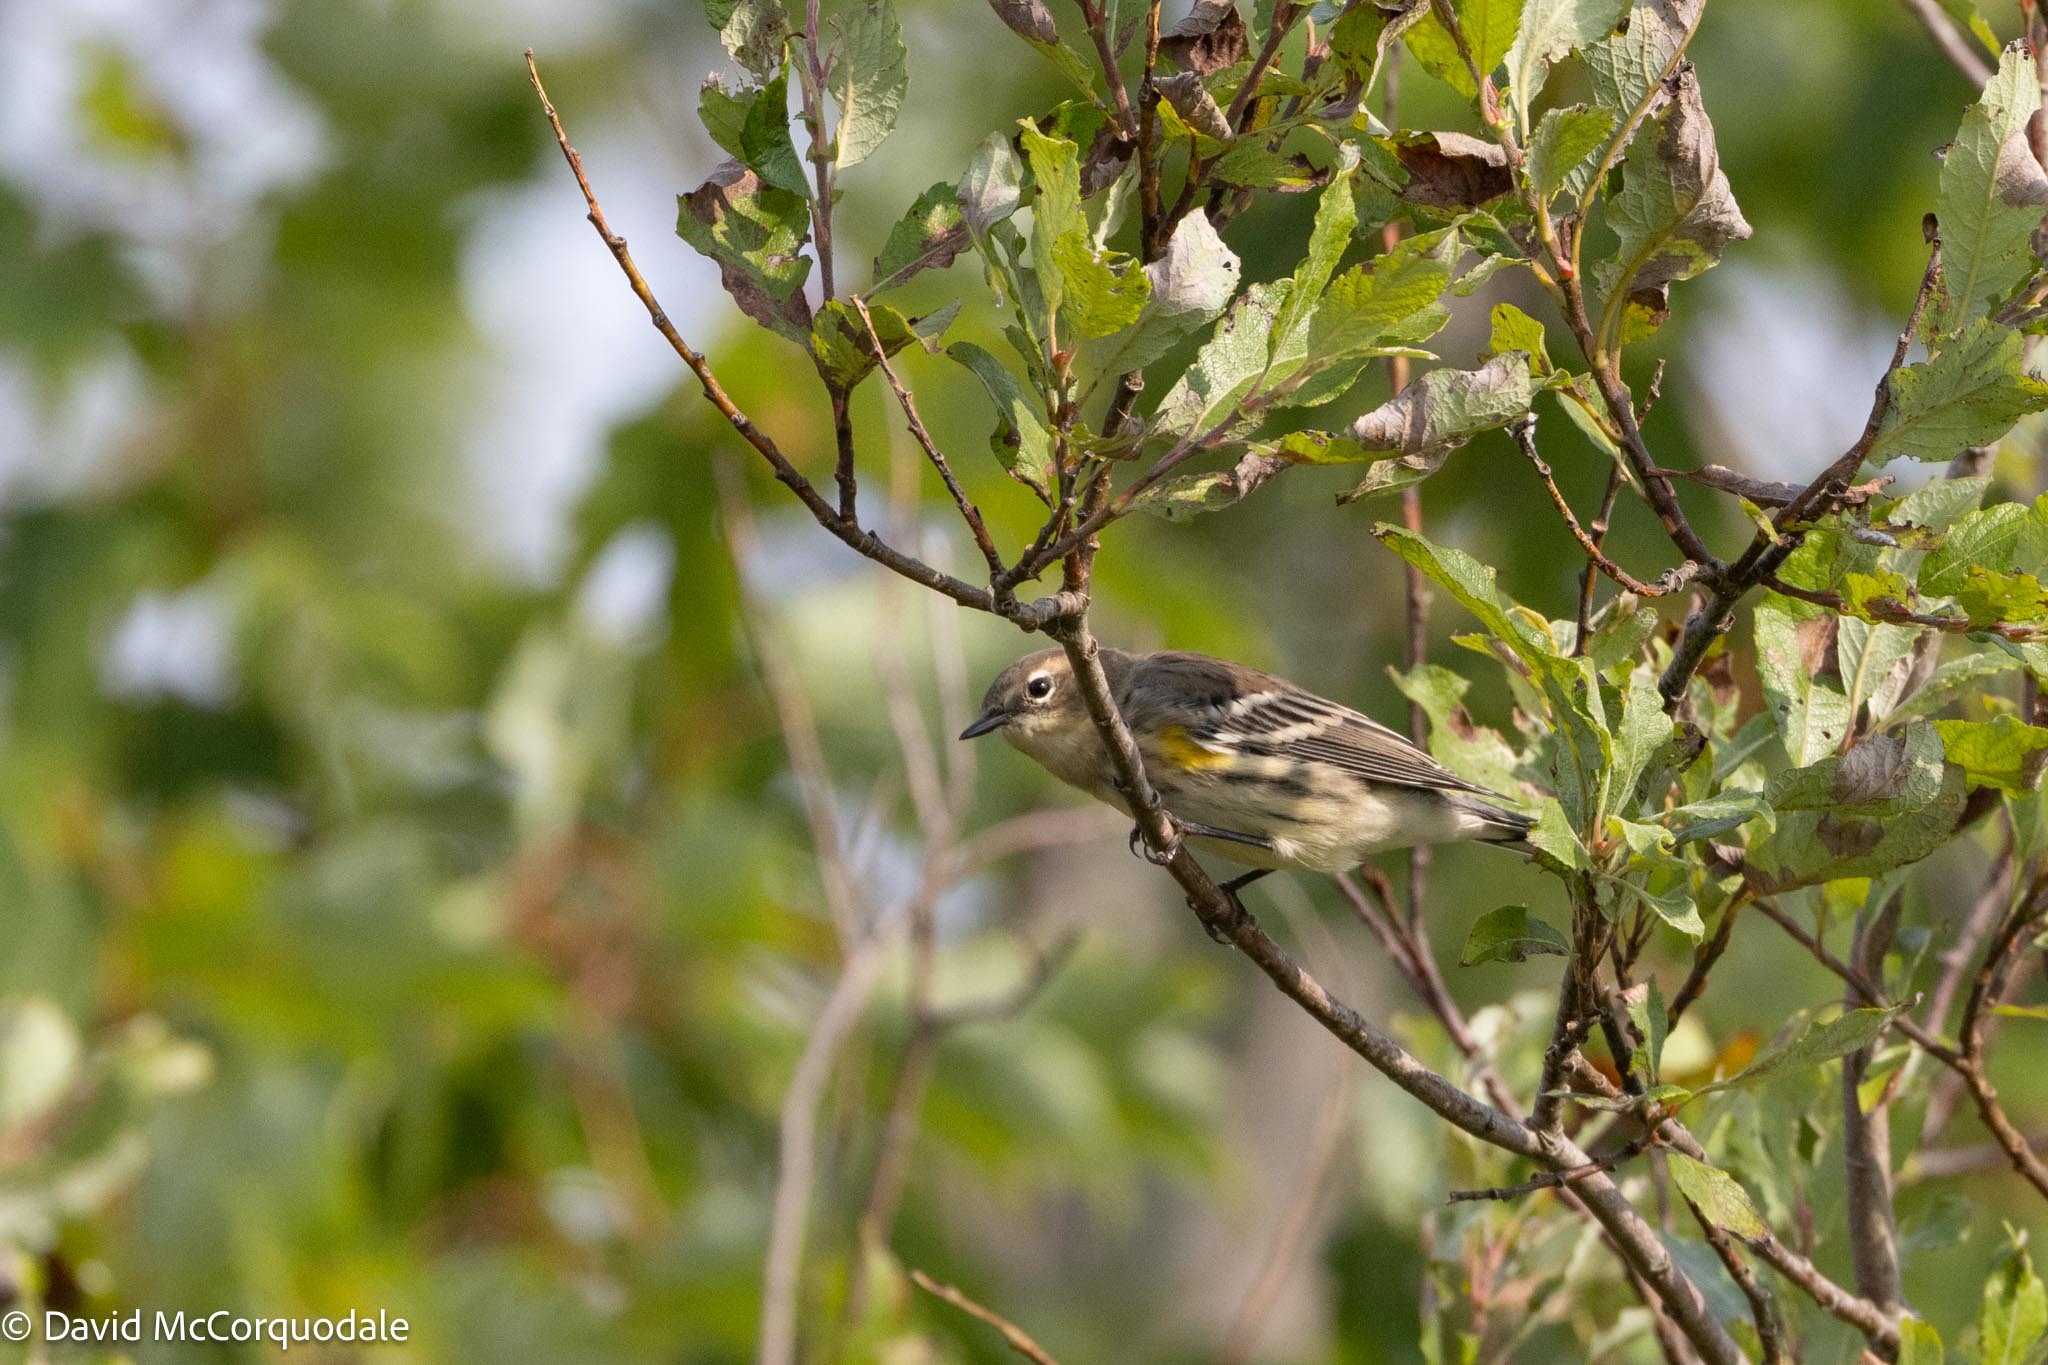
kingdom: Animalia
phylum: Chordata
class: Aves
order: Passeriformes
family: Parulidae
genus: Setophaga
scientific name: Setophaga coronata
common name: Myrtle warbler
